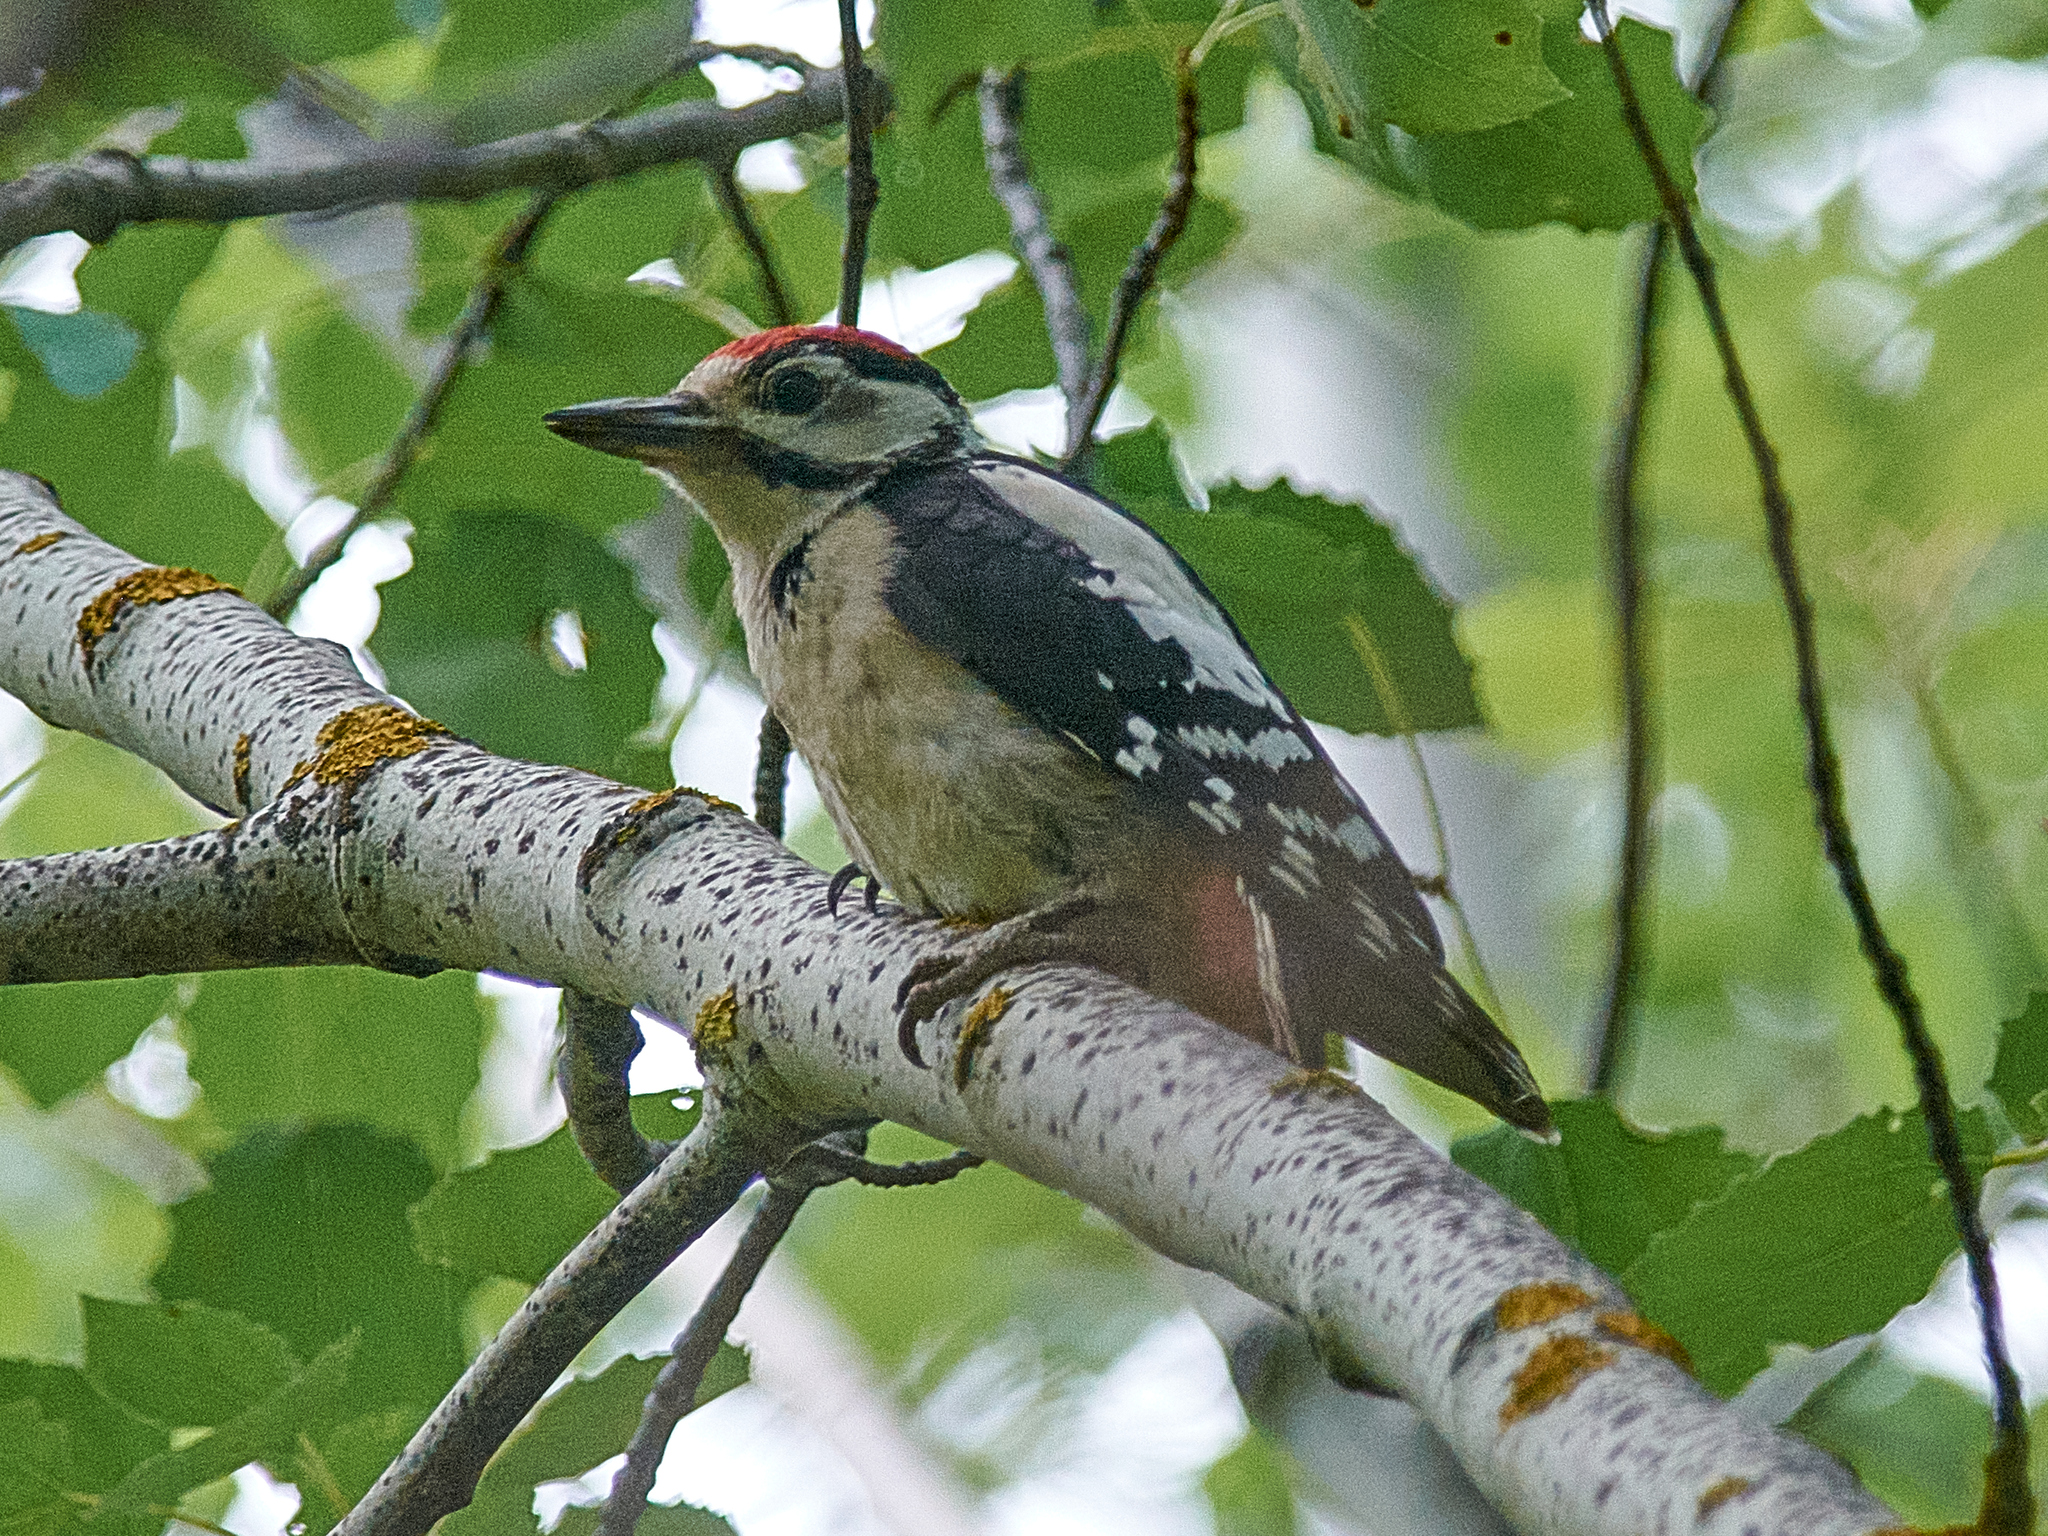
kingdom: Animalia
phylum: Chordata
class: Aves
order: Piciformes
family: Picidae
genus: Dendrocopos
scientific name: Dendrocopos major
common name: Great spotted woodpecker
